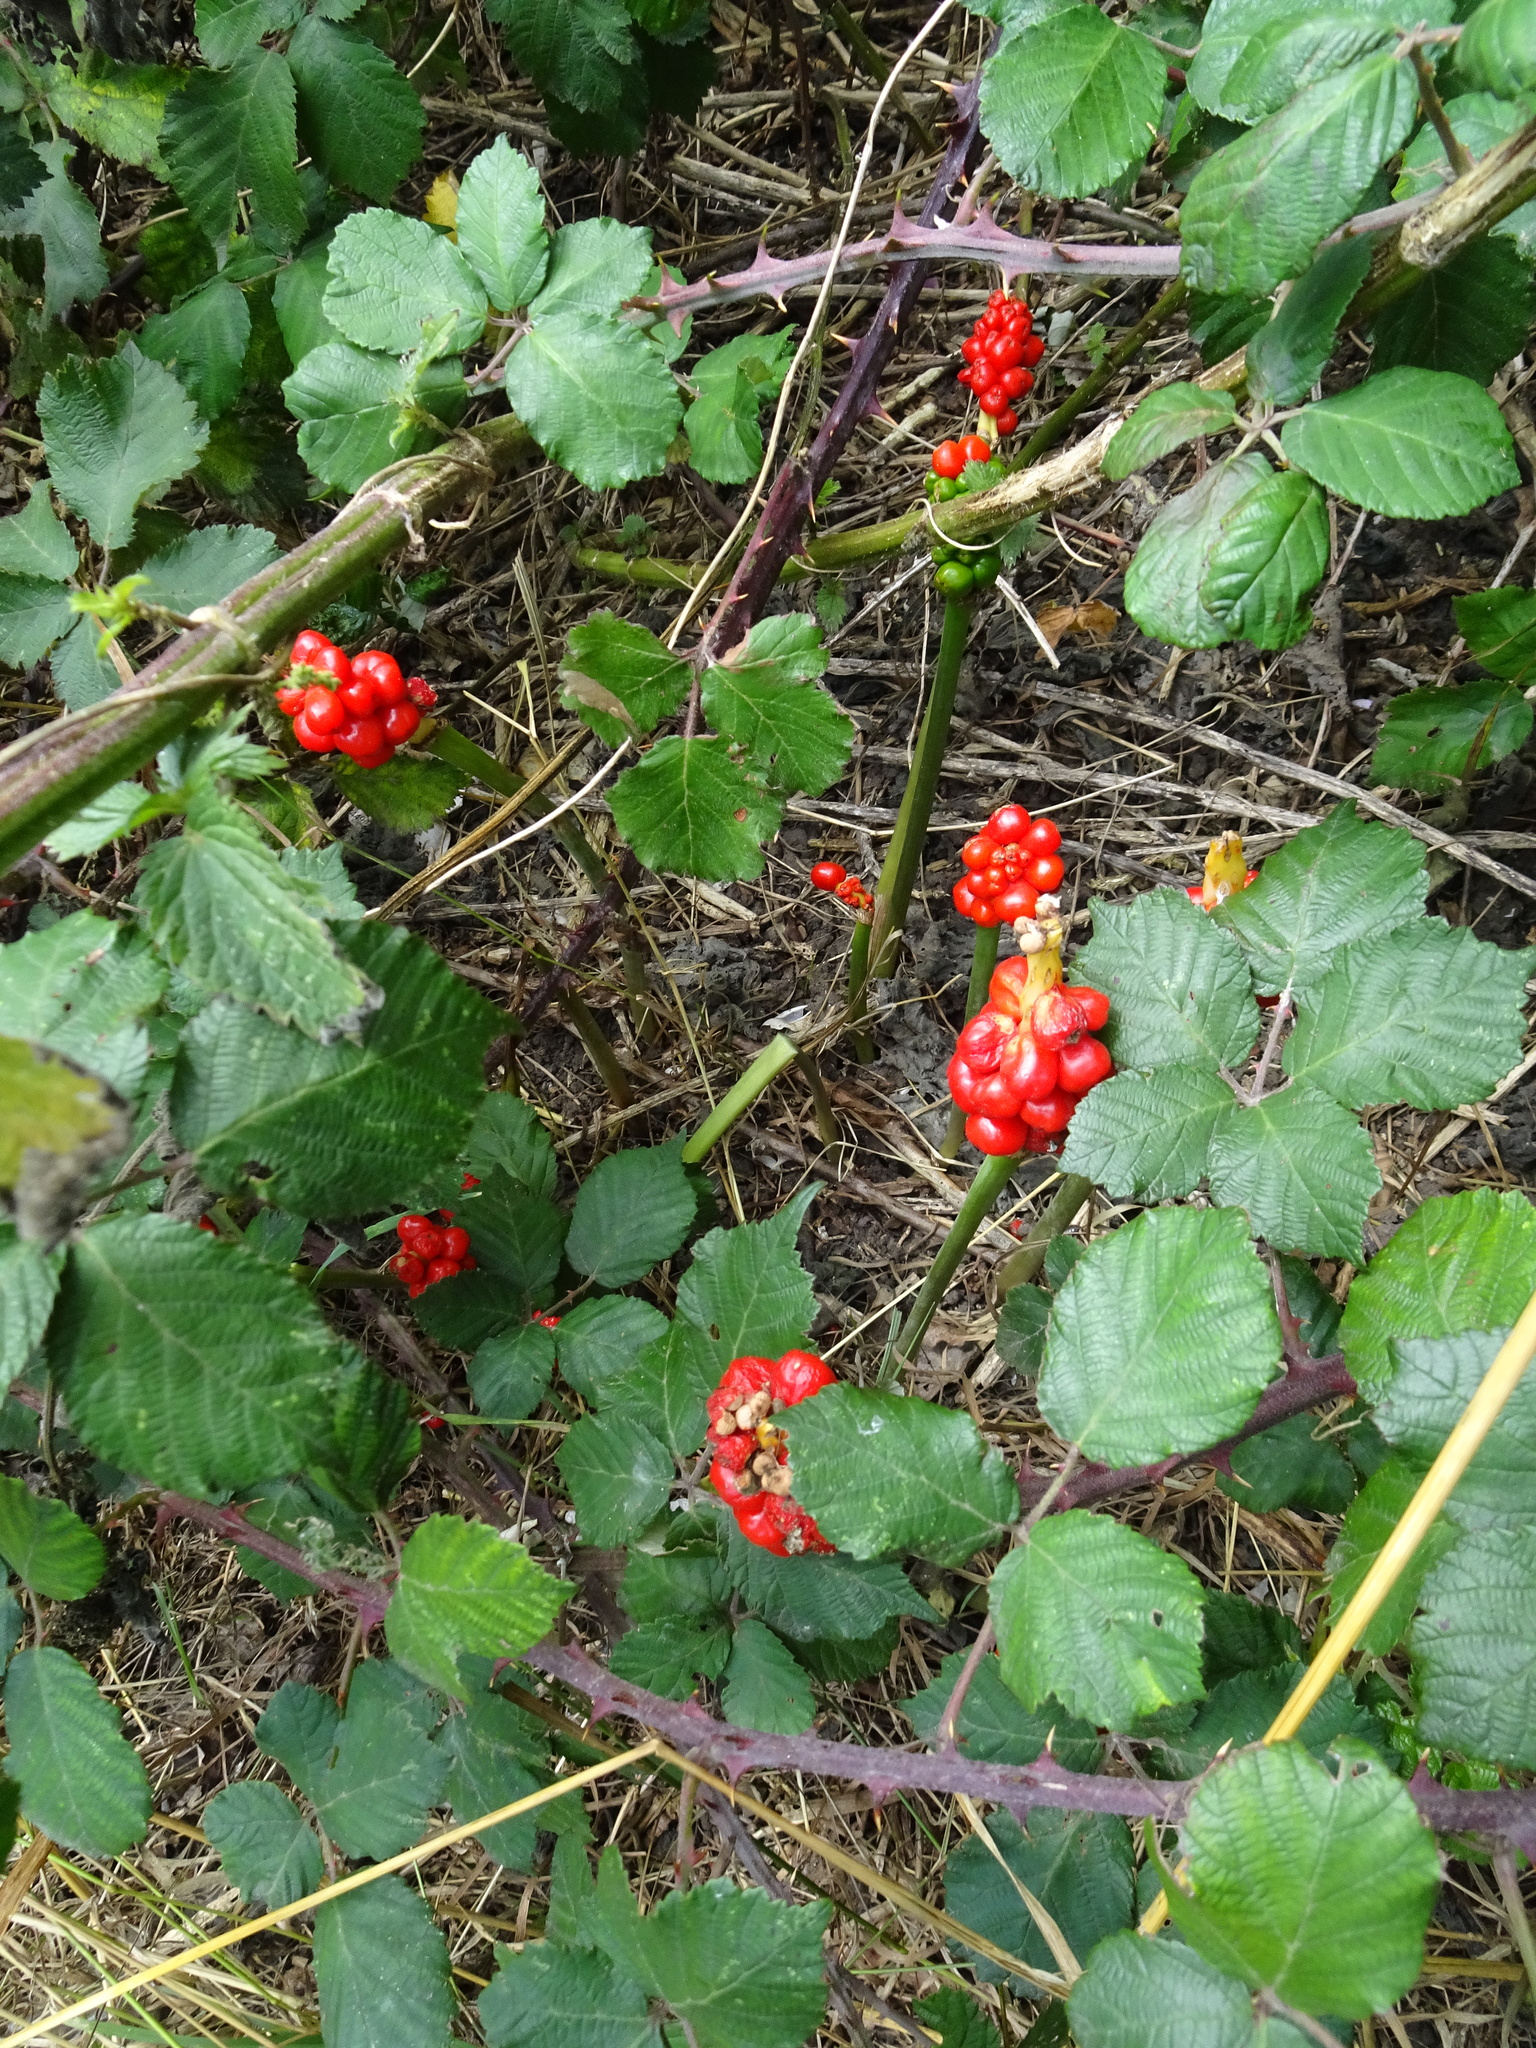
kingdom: Plantae
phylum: Tracheophyta
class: Liliopsida
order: Alismatales
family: Araceae
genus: Arum
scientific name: Arum maculatum
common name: Lords-and-ladies
